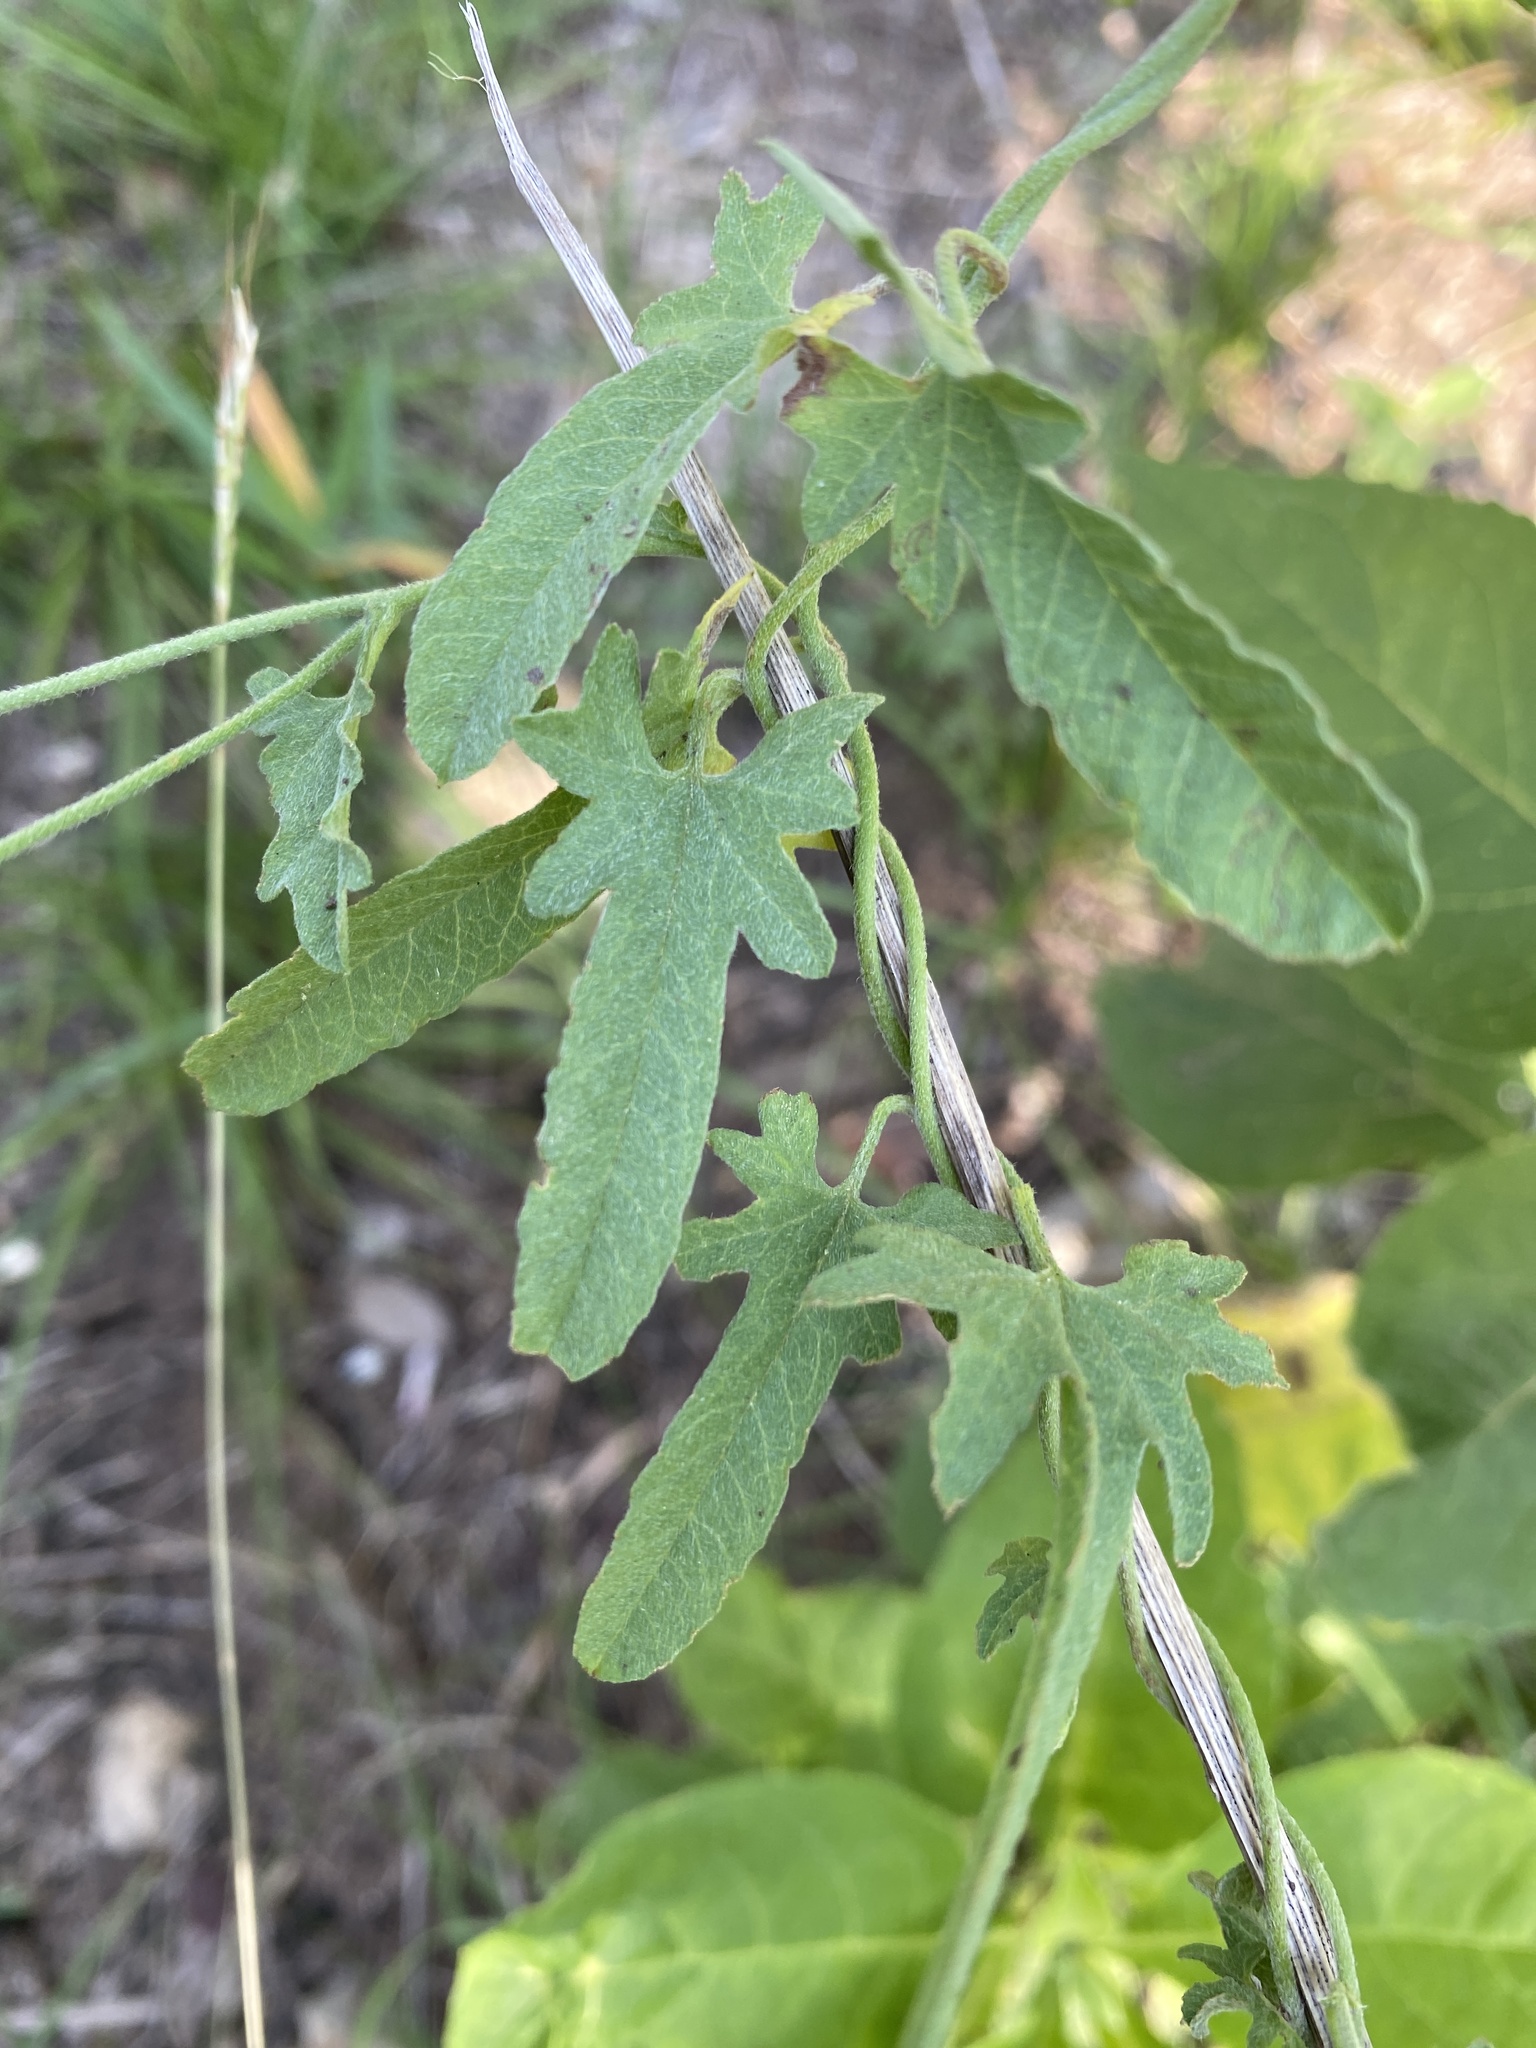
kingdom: Plantae
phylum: Tracheophyta
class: Magnoliopsida
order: Solanales
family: Convolvulaceae
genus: Convolvulus
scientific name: Convolvulus equitans
